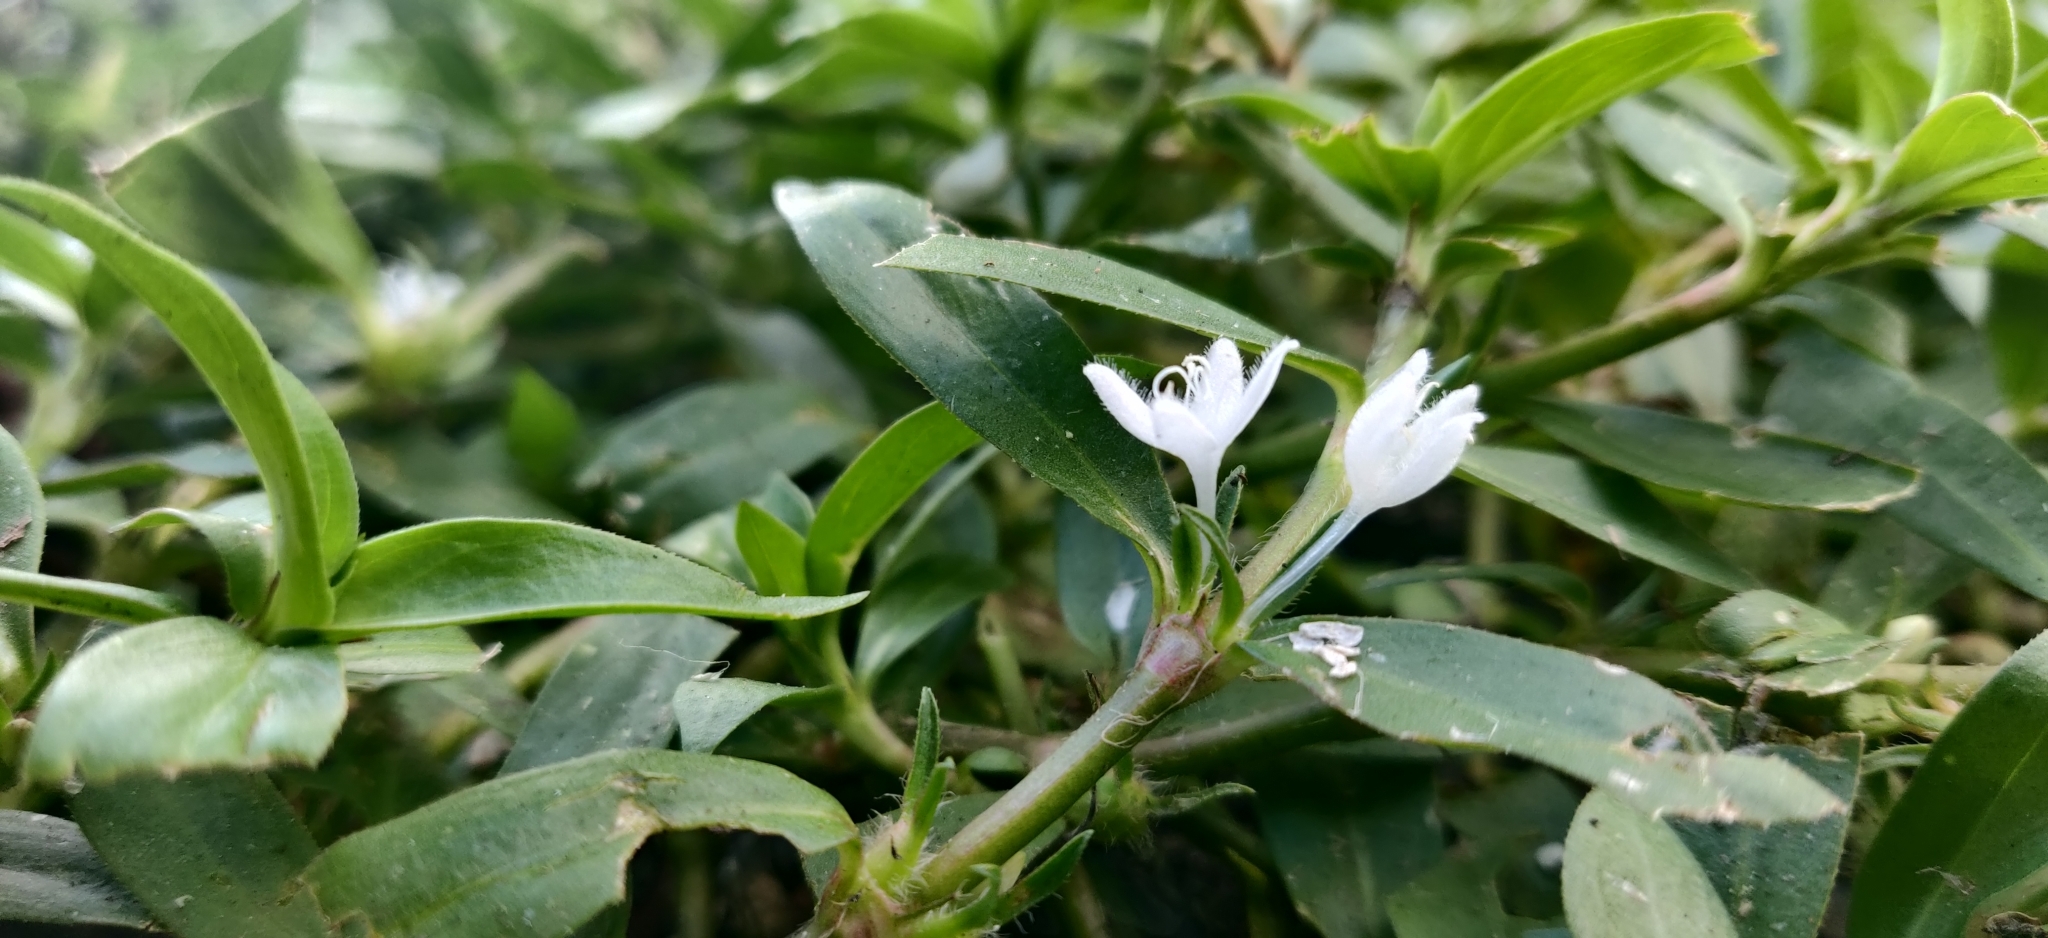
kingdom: Plantae
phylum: Tracheophyta
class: Magnoliopsida
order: Gentianales
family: Rubiaceae
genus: Diodia
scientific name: Diodia virginiana
